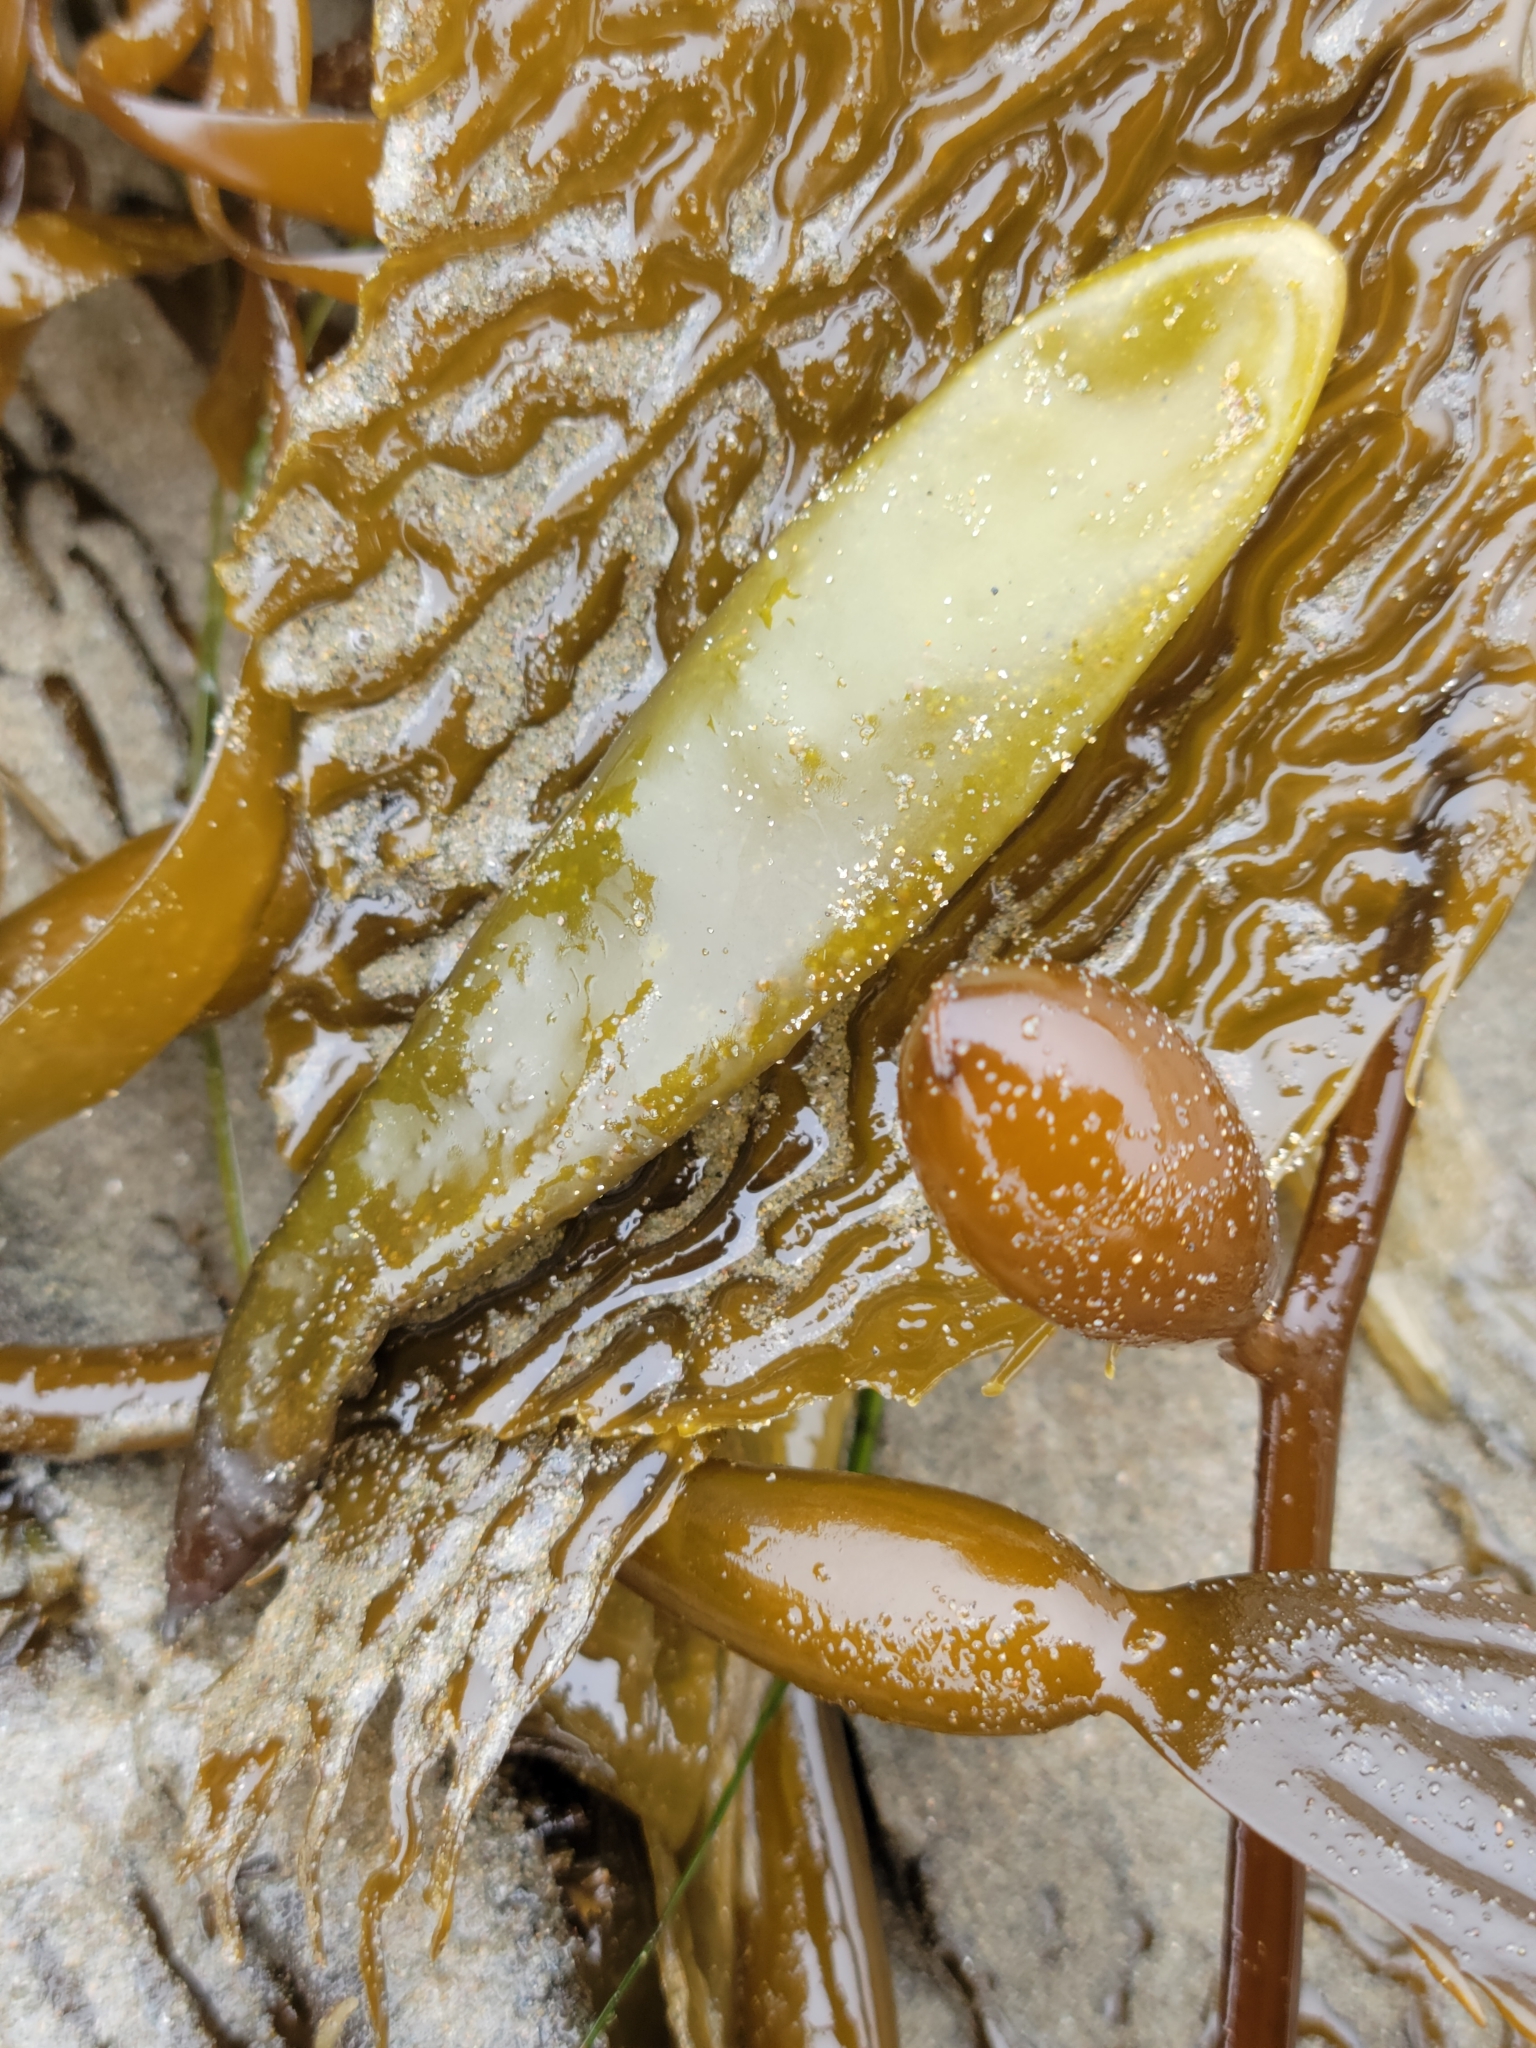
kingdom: Plantae
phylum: Rhodophyta
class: Florideophyceae
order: Palmariales
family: Palmariaceae
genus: Halosaccion
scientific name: Halosaccion glandiforme
